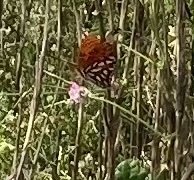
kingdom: Animalia
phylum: Arthropoda
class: Insecta
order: Lepidoptera
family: Nymphalidae
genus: Dione
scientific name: Dione vanillae
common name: Gulf fritillary
